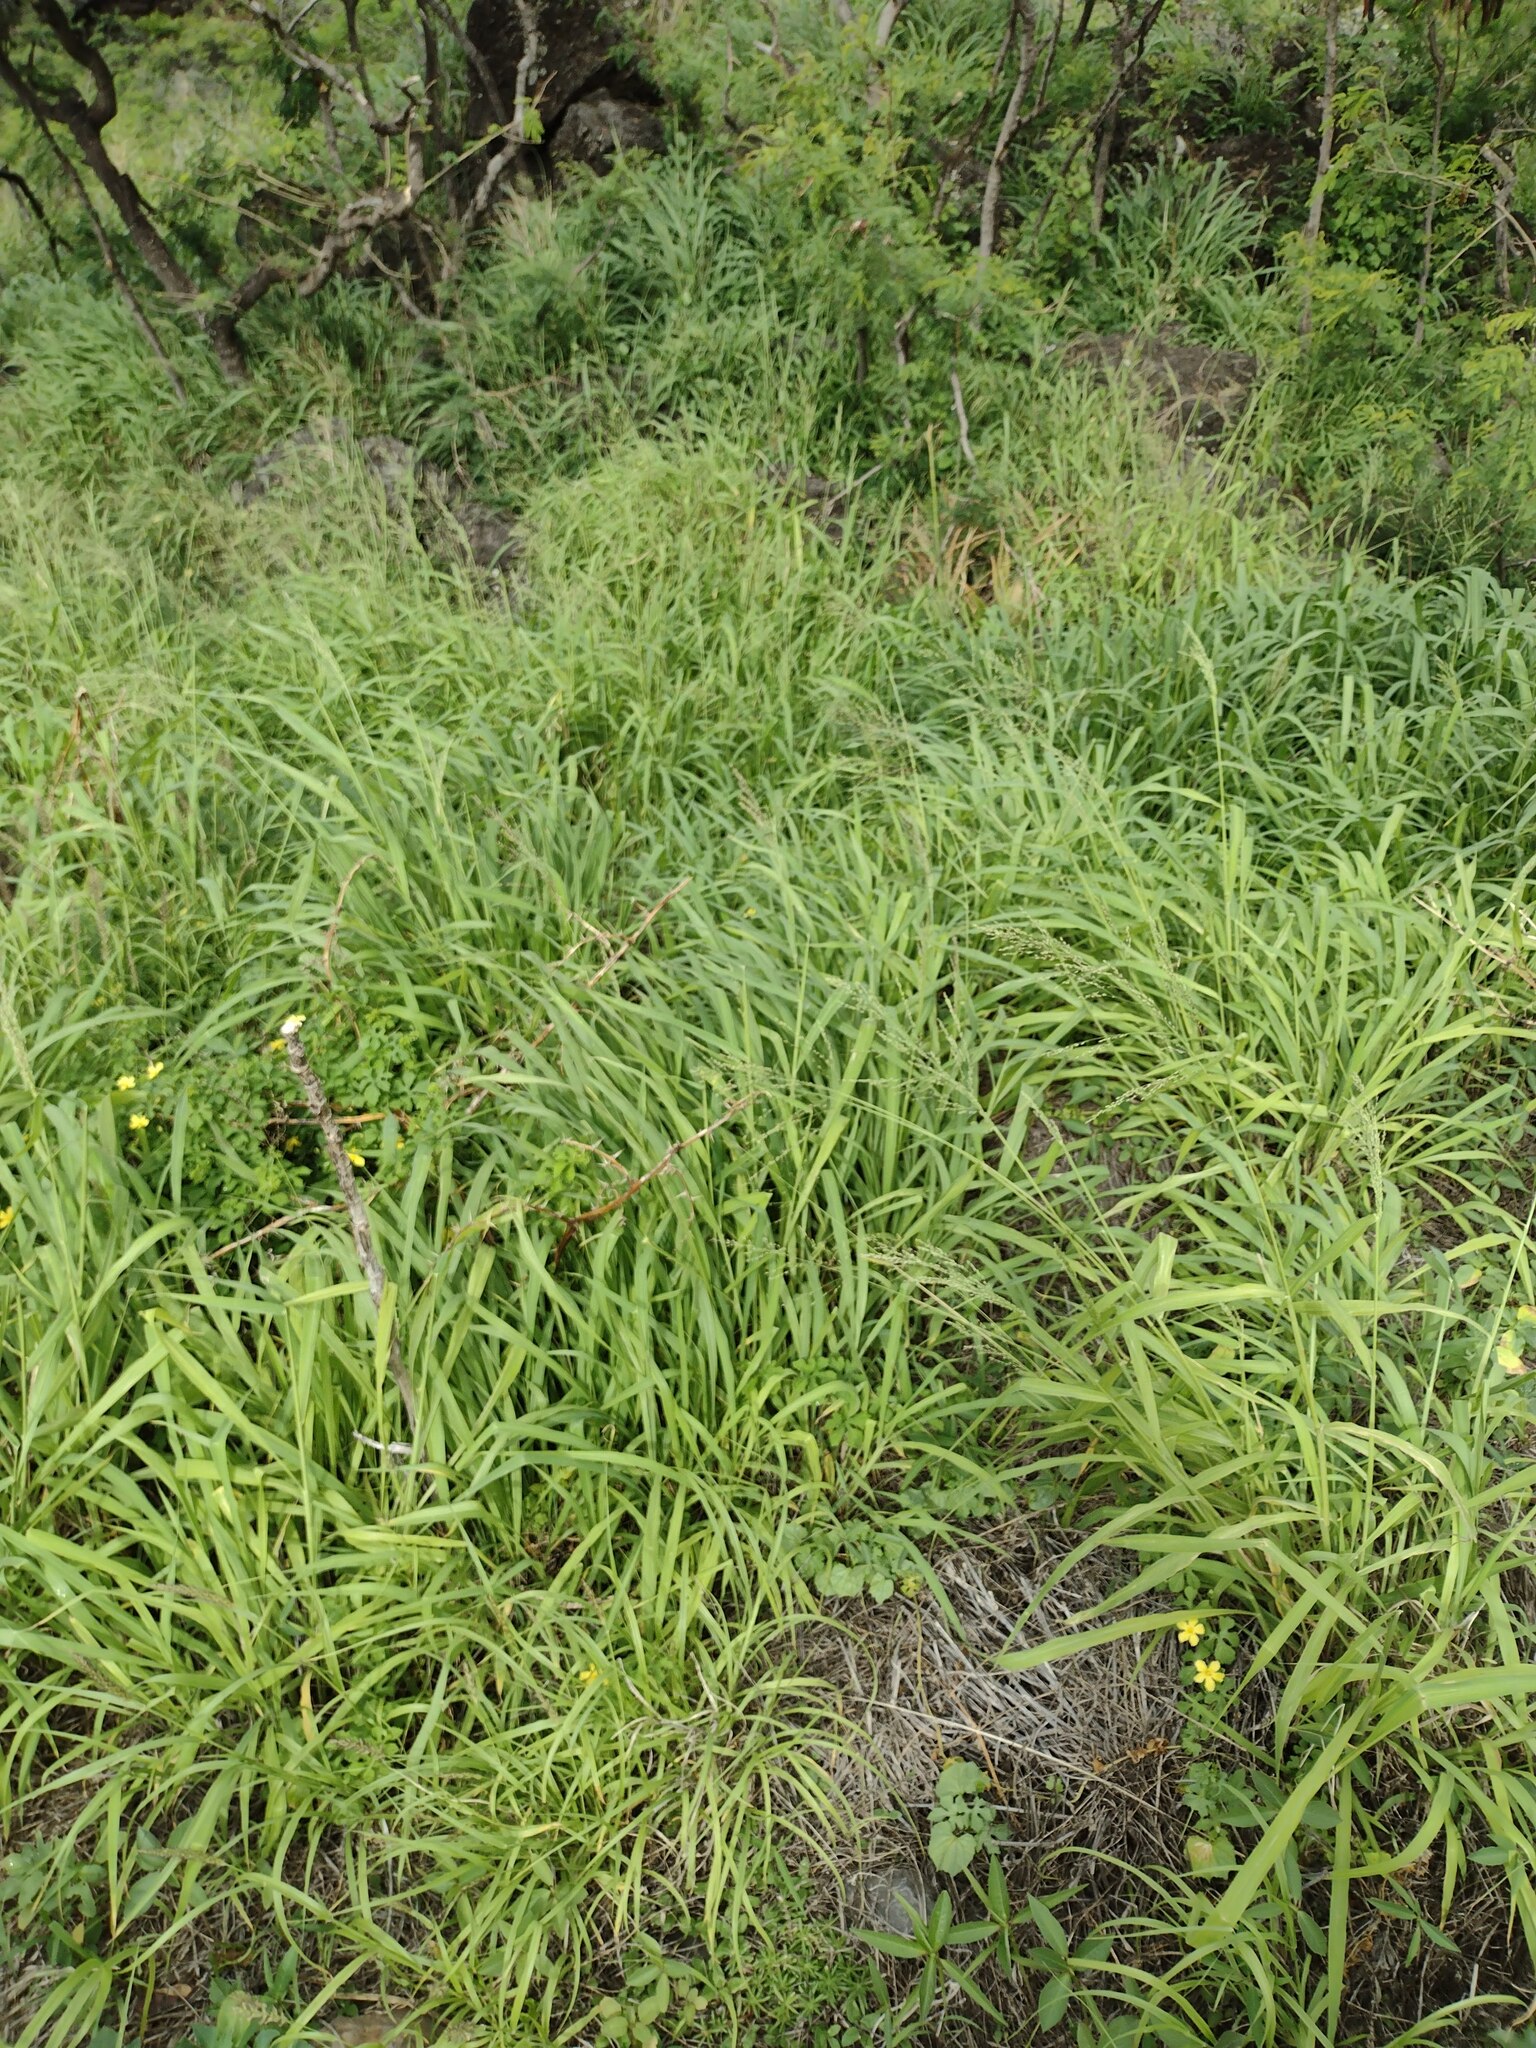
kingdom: Plantae
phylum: Tracheophyta
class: Liliopsida
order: Poales
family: Poaceae
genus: Megathyrsus
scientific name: Megathyrsus maximus
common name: Guineagrass
